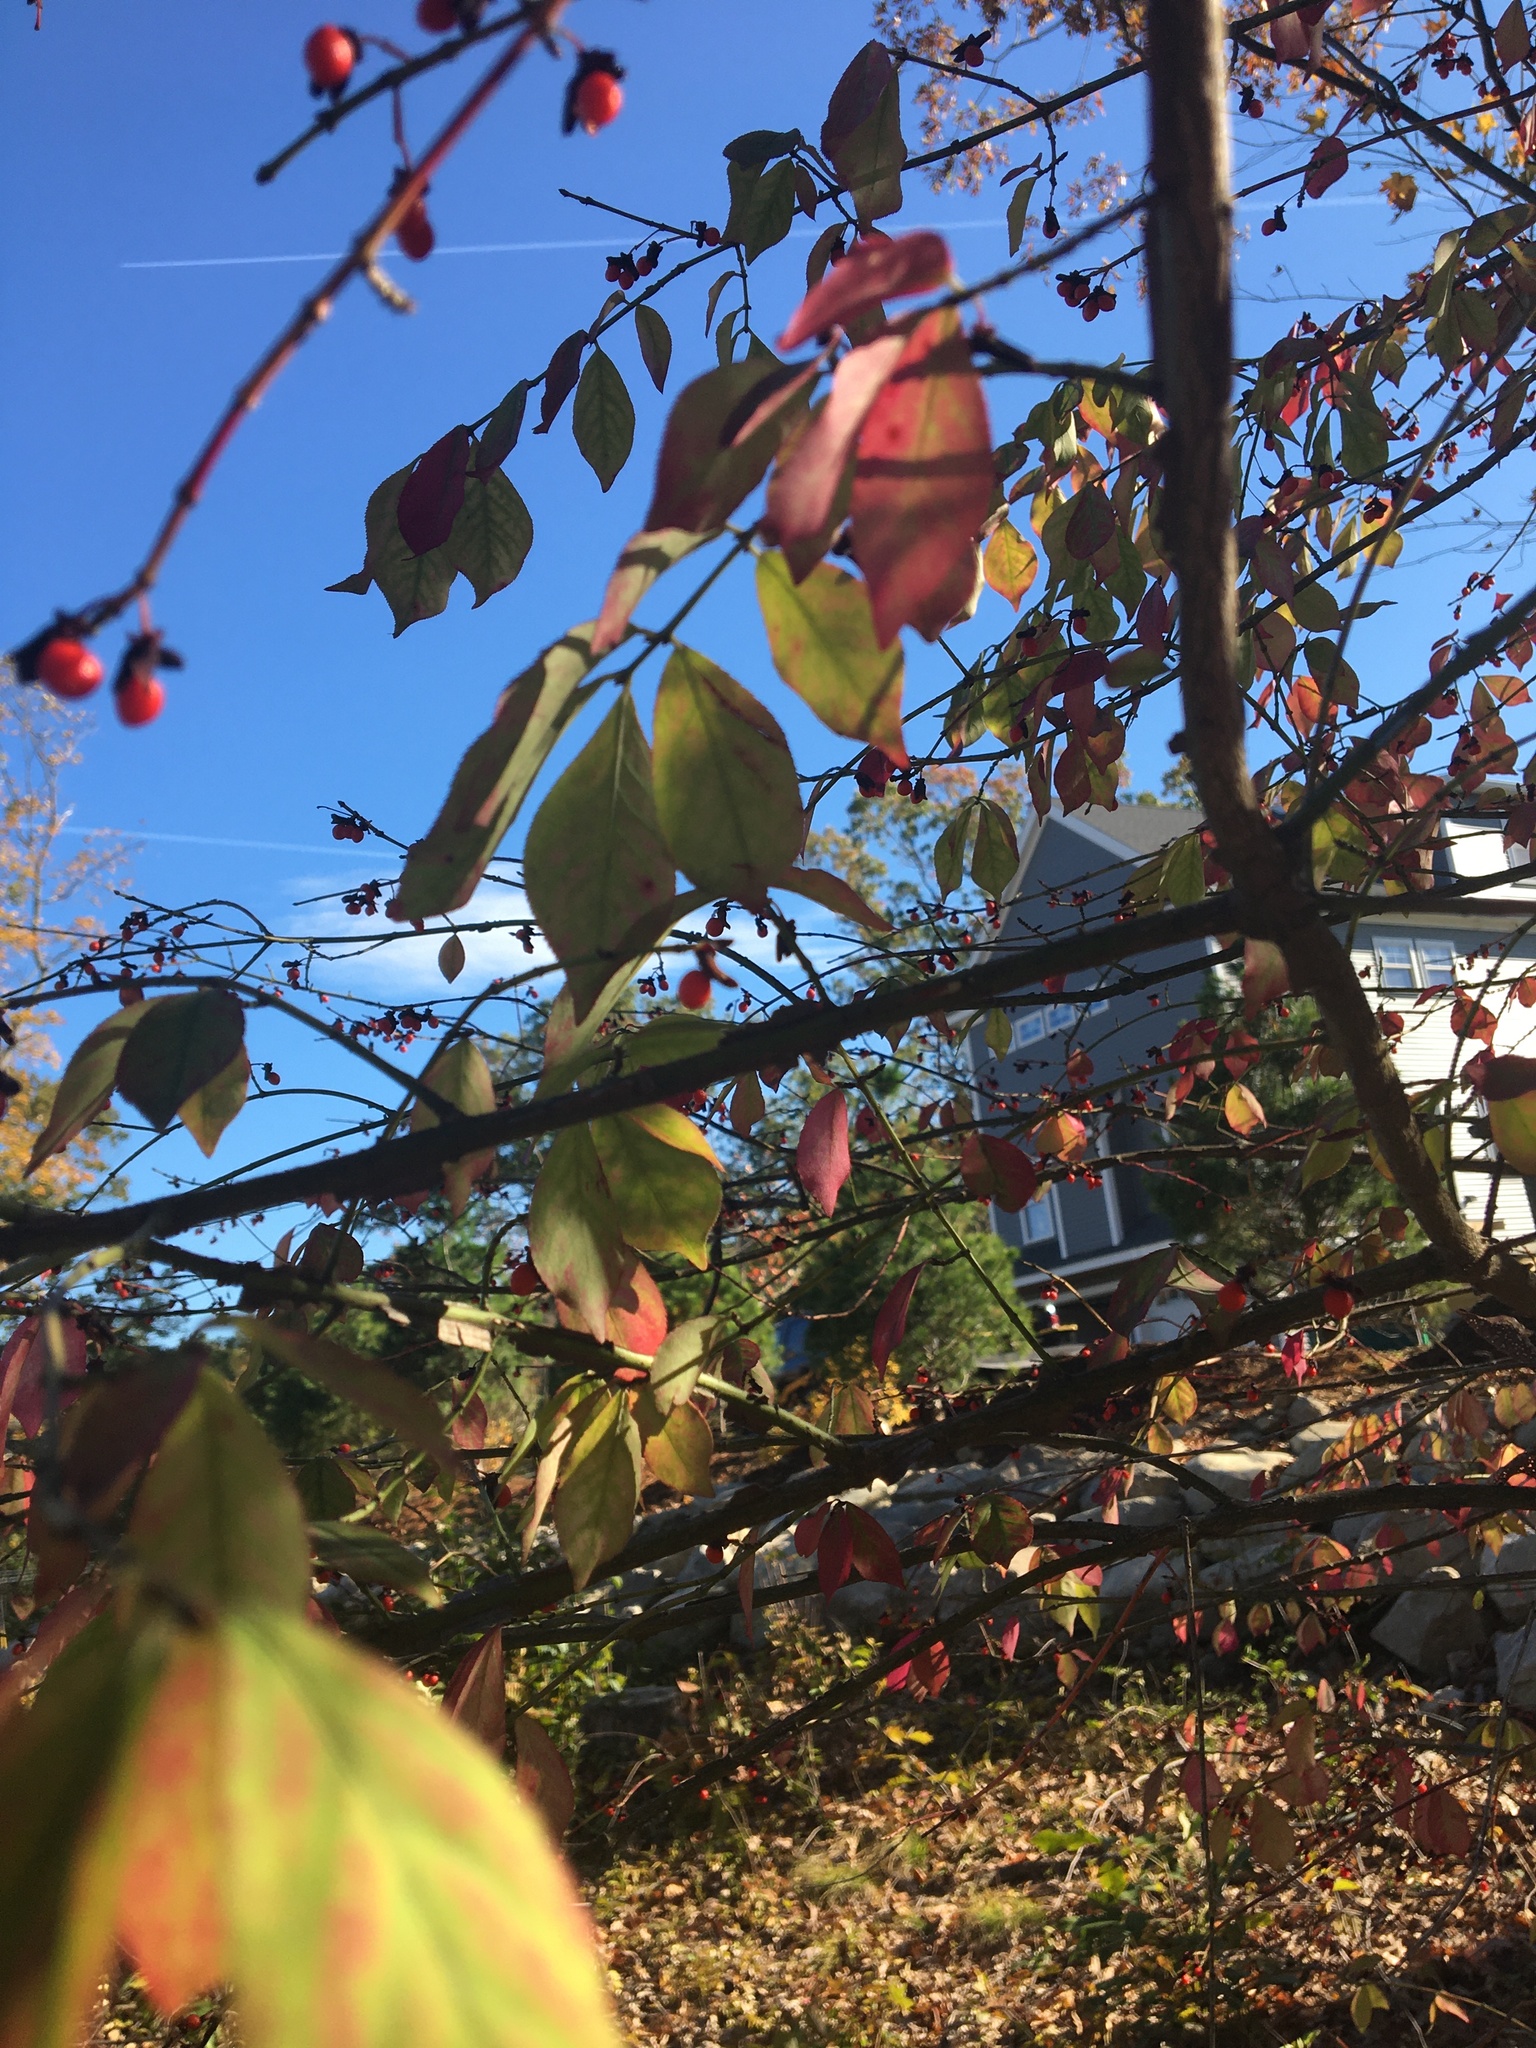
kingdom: Plantae
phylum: Tracheophyta
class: Magnoliopsida
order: Celastrales
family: Celastraceae
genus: Euonymus
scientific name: Euonymus alatus
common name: Winged euonymus
